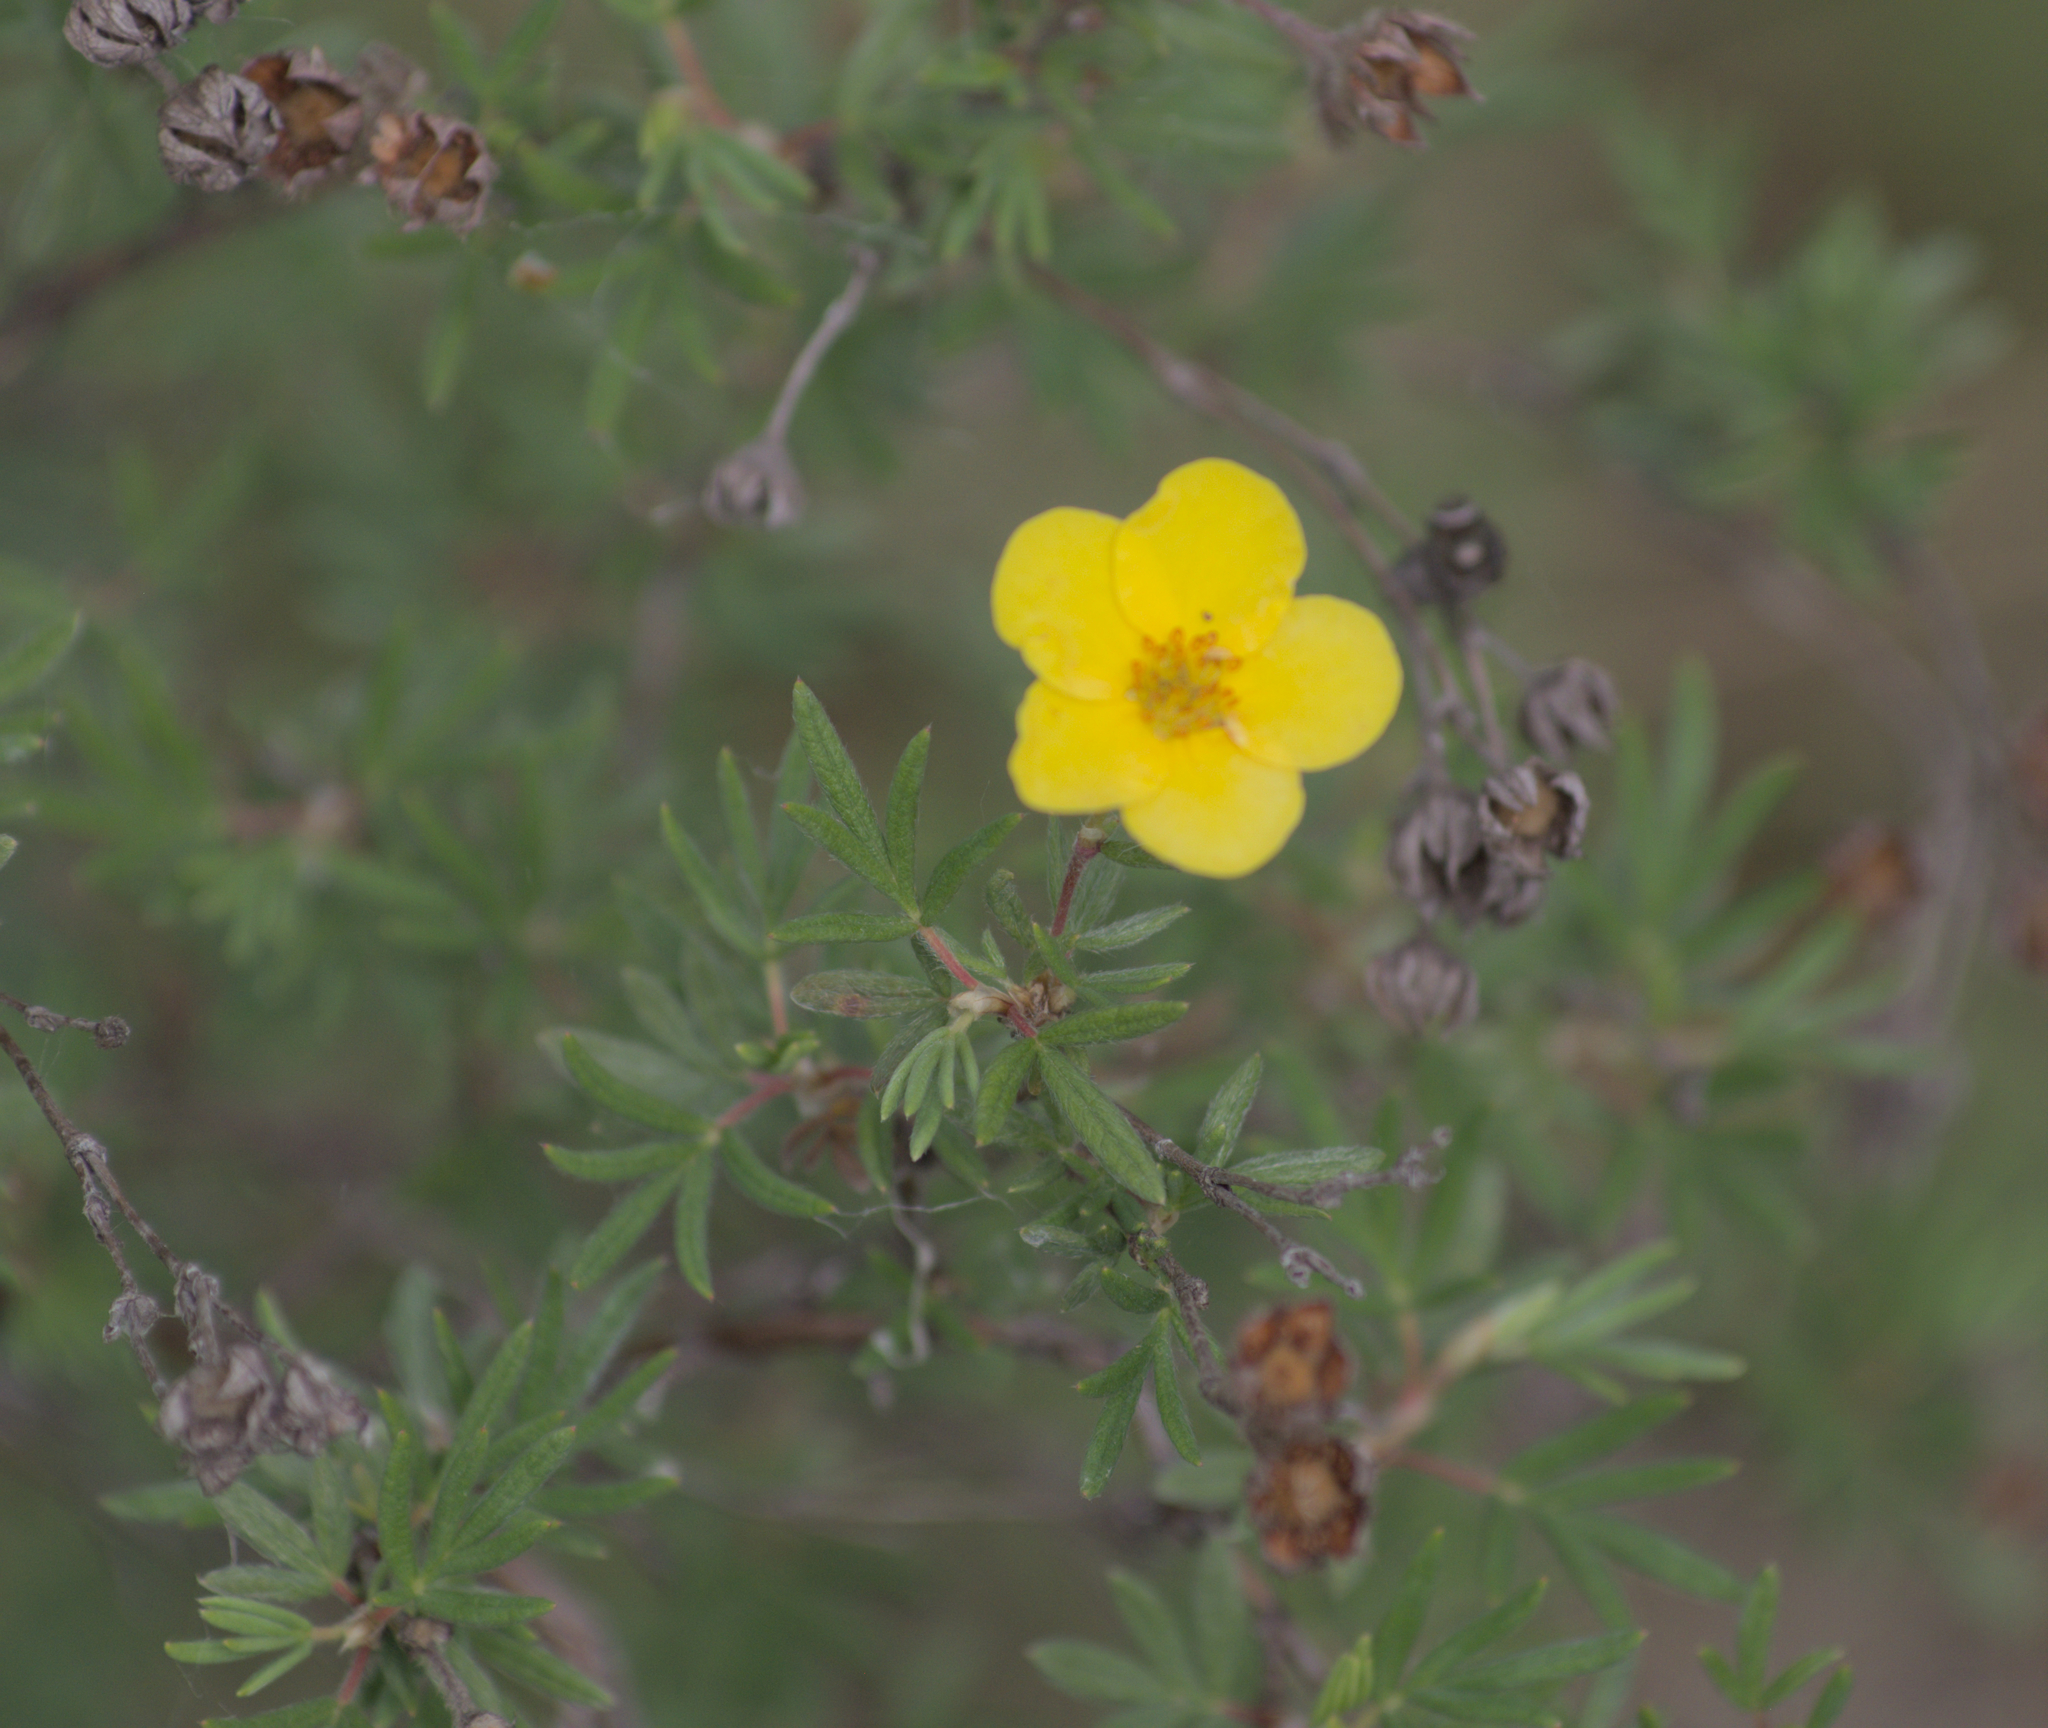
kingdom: Plantae
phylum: Tracheophyta
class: Magnoliopsida
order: Rosales
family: Rosaceae
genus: Dasiphora
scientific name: Dasiphora fruticosa
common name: Shrubby cinquefoil
